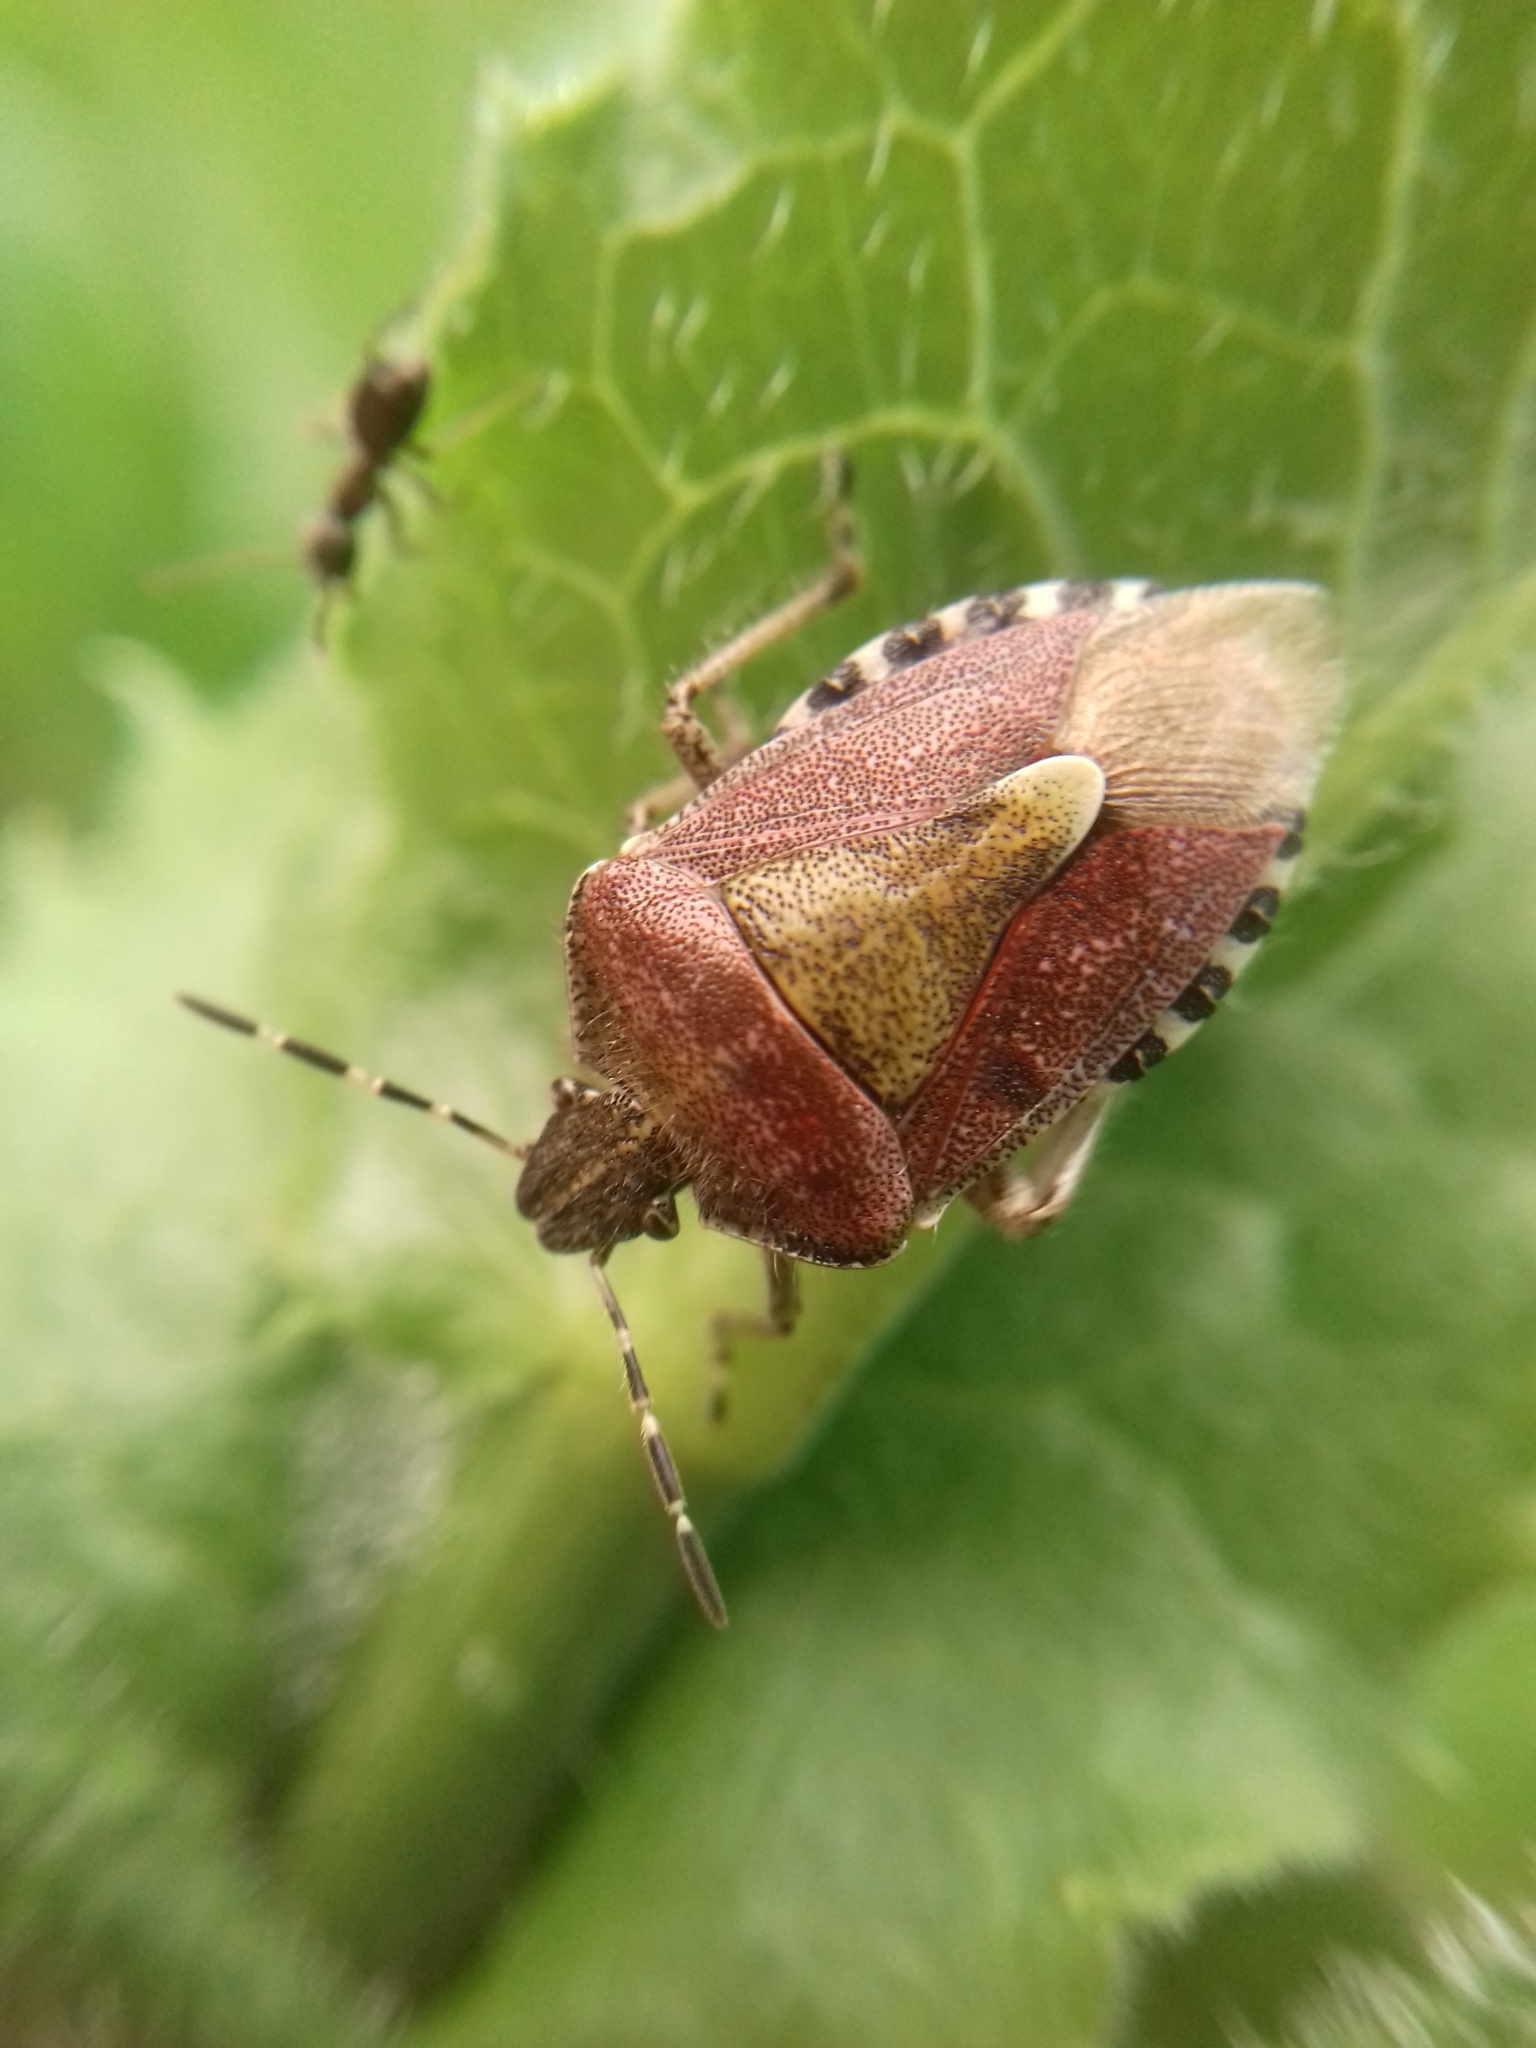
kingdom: Animalia
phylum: Arthropoda
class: Insecta
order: Hemiptera
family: Pentatomidae
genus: Dolycoris
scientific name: Dolycoris baccarum
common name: Sloe bug
